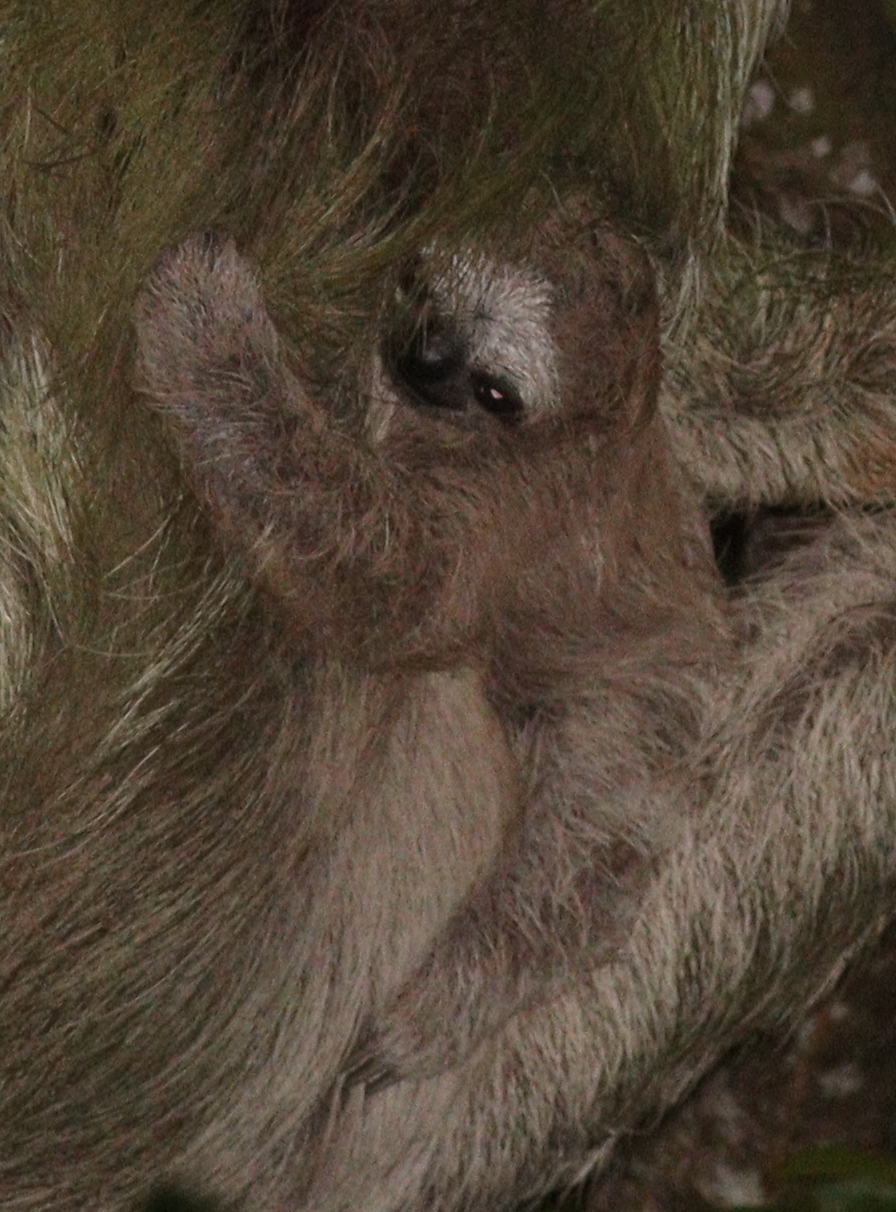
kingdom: Animalia
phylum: Chordata
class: Mammalia
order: Pilosa
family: Bradypodidae
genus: Bradypus
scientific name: Bradypus variegatus
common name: Brown-throated three-toed sloth
